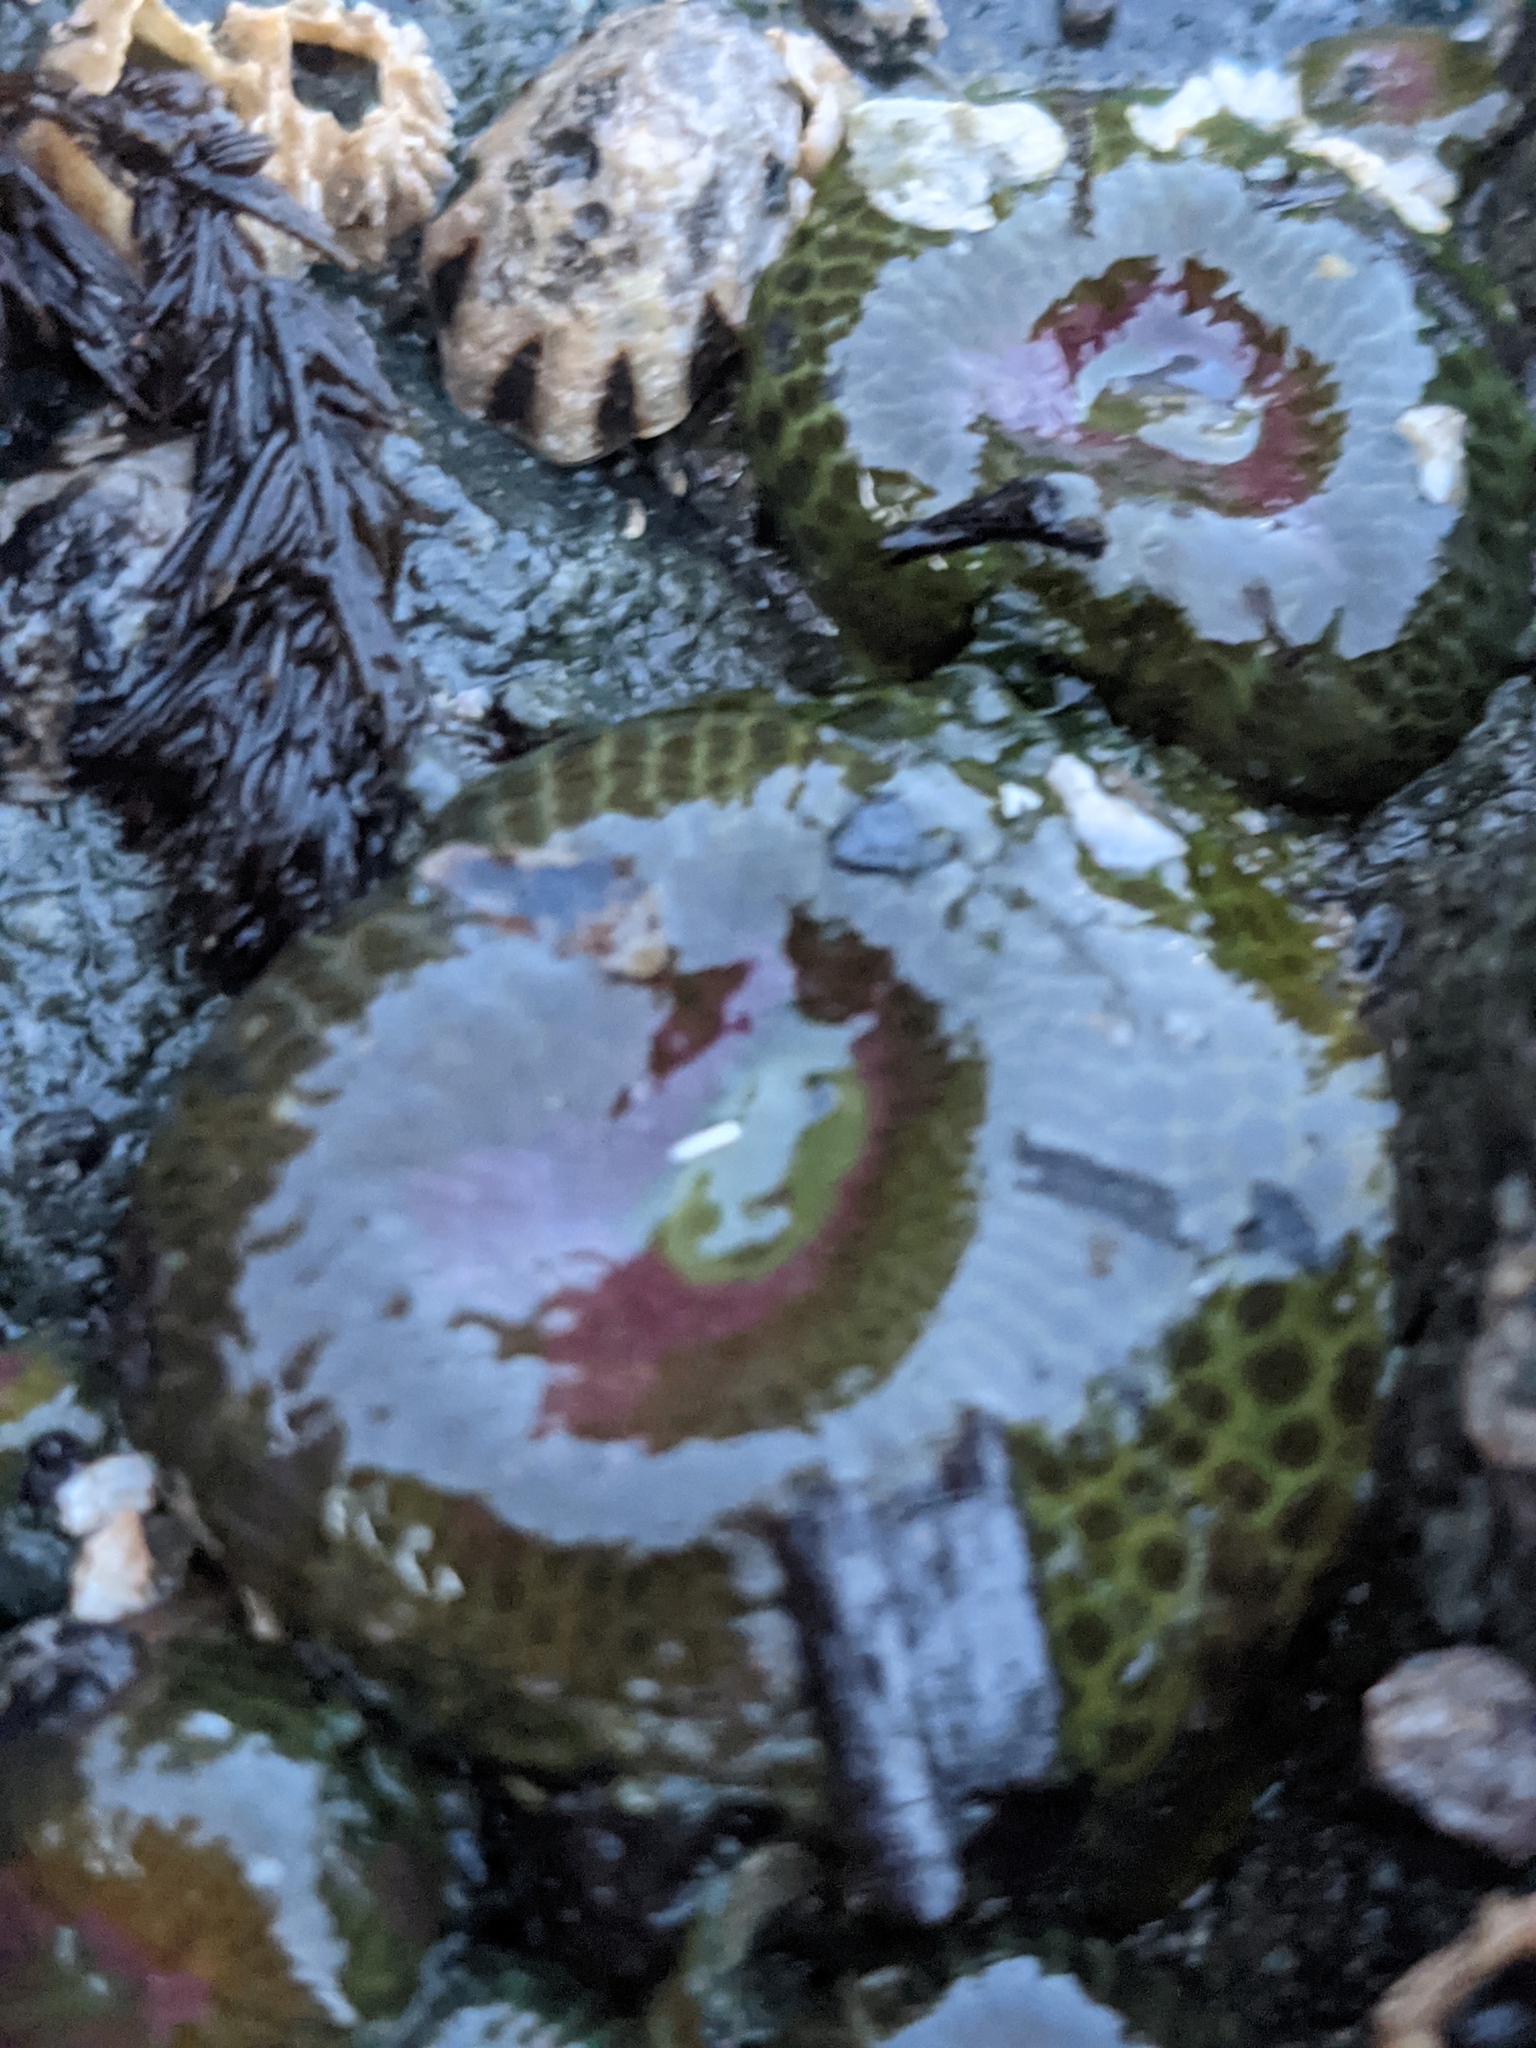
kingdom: Animalia
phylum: Cnidaria
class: Anthozoa
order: Actiniaria
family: Actiniidae
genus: Anthopleura
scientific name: Anthopleura elegantissima
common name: Clonal anemone
